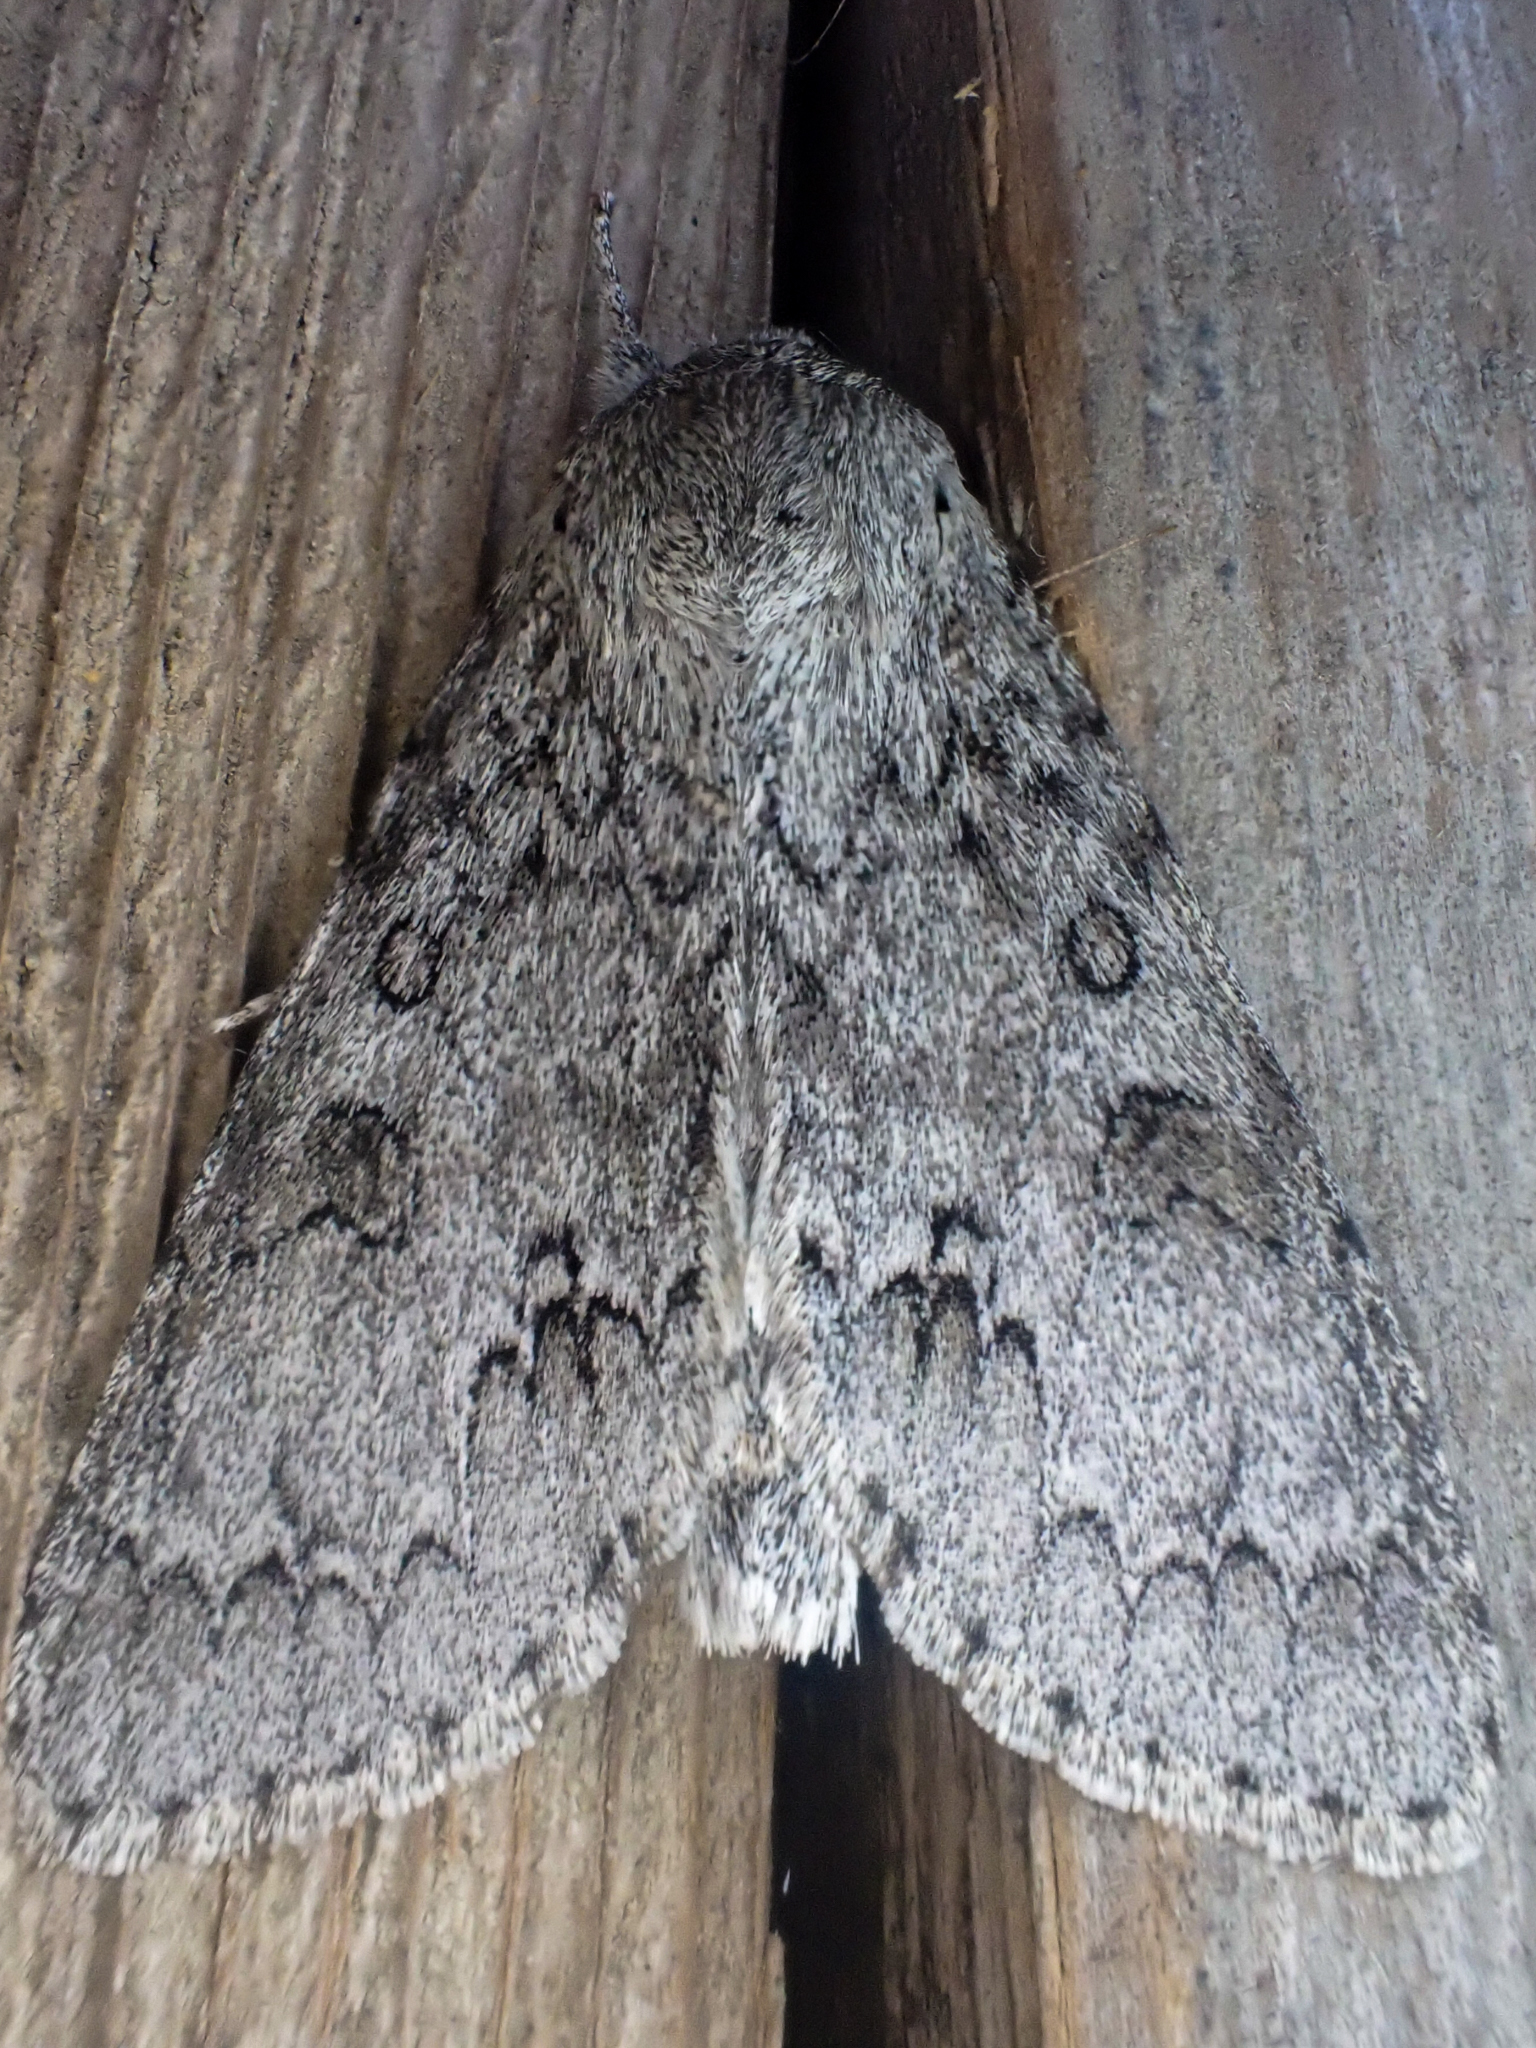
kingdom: Animalia
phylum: Arthropoda
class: Insecta
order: Lepidoptera
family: Noctuidae
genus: Acronicta
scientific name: Acronicta insita
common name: Large gray dagger
